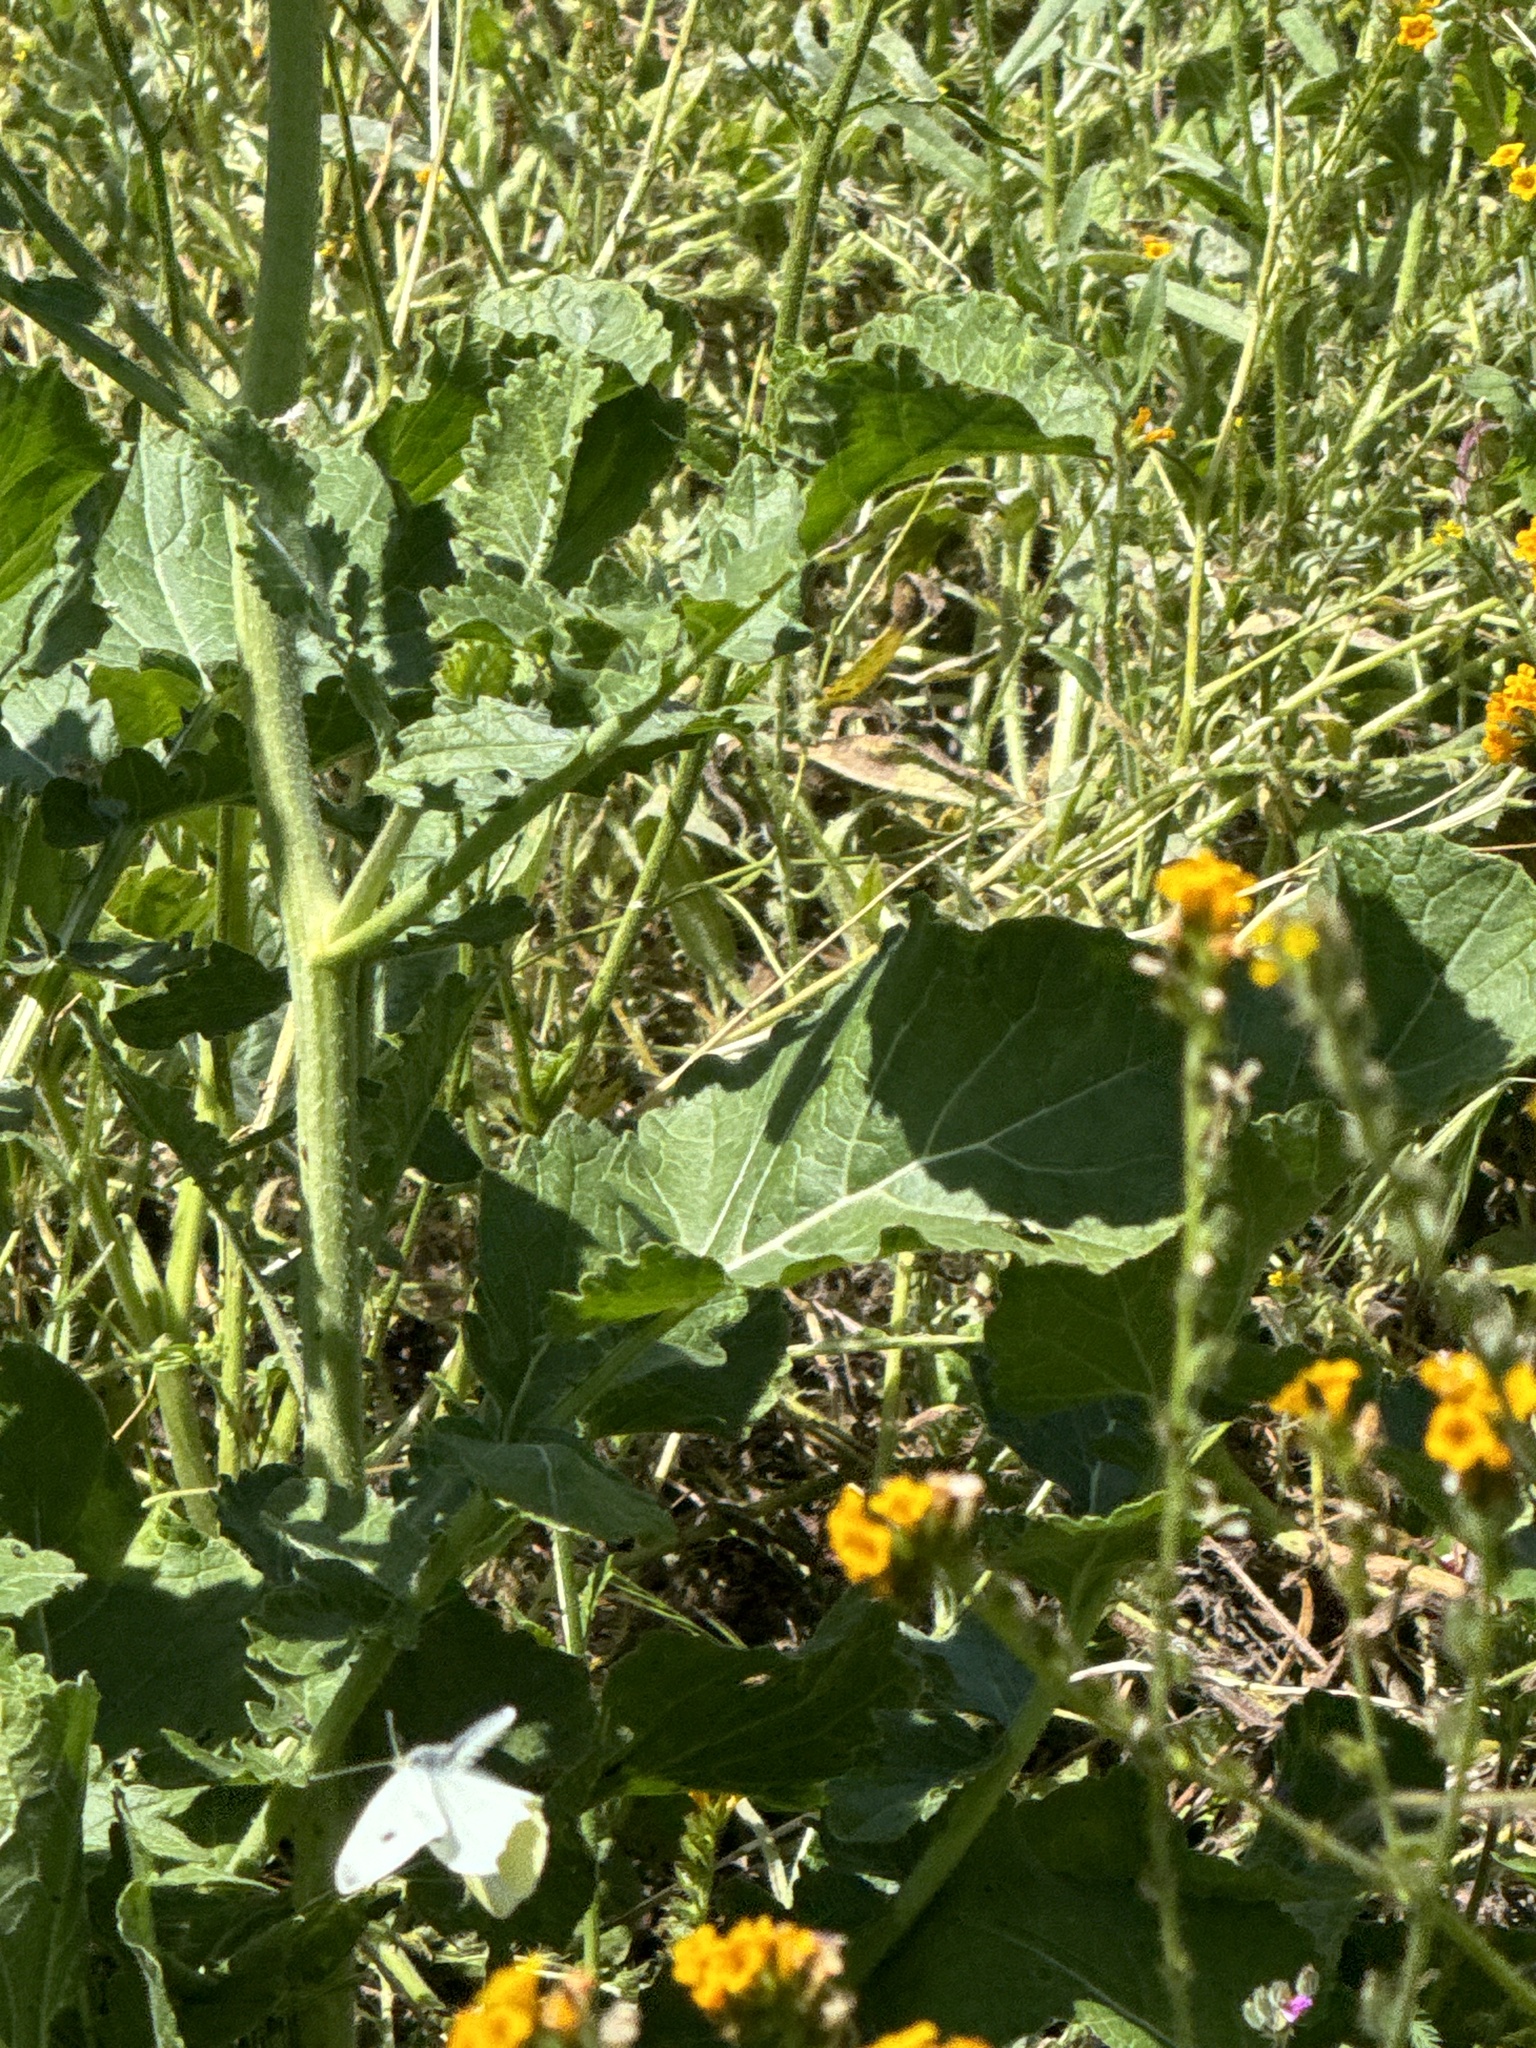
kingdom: Animalia
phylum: Arthropoda
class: Insecta
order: Lepidoptera
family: Pieridae
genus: Pieris
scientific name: Pieris rapae
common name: Small white
